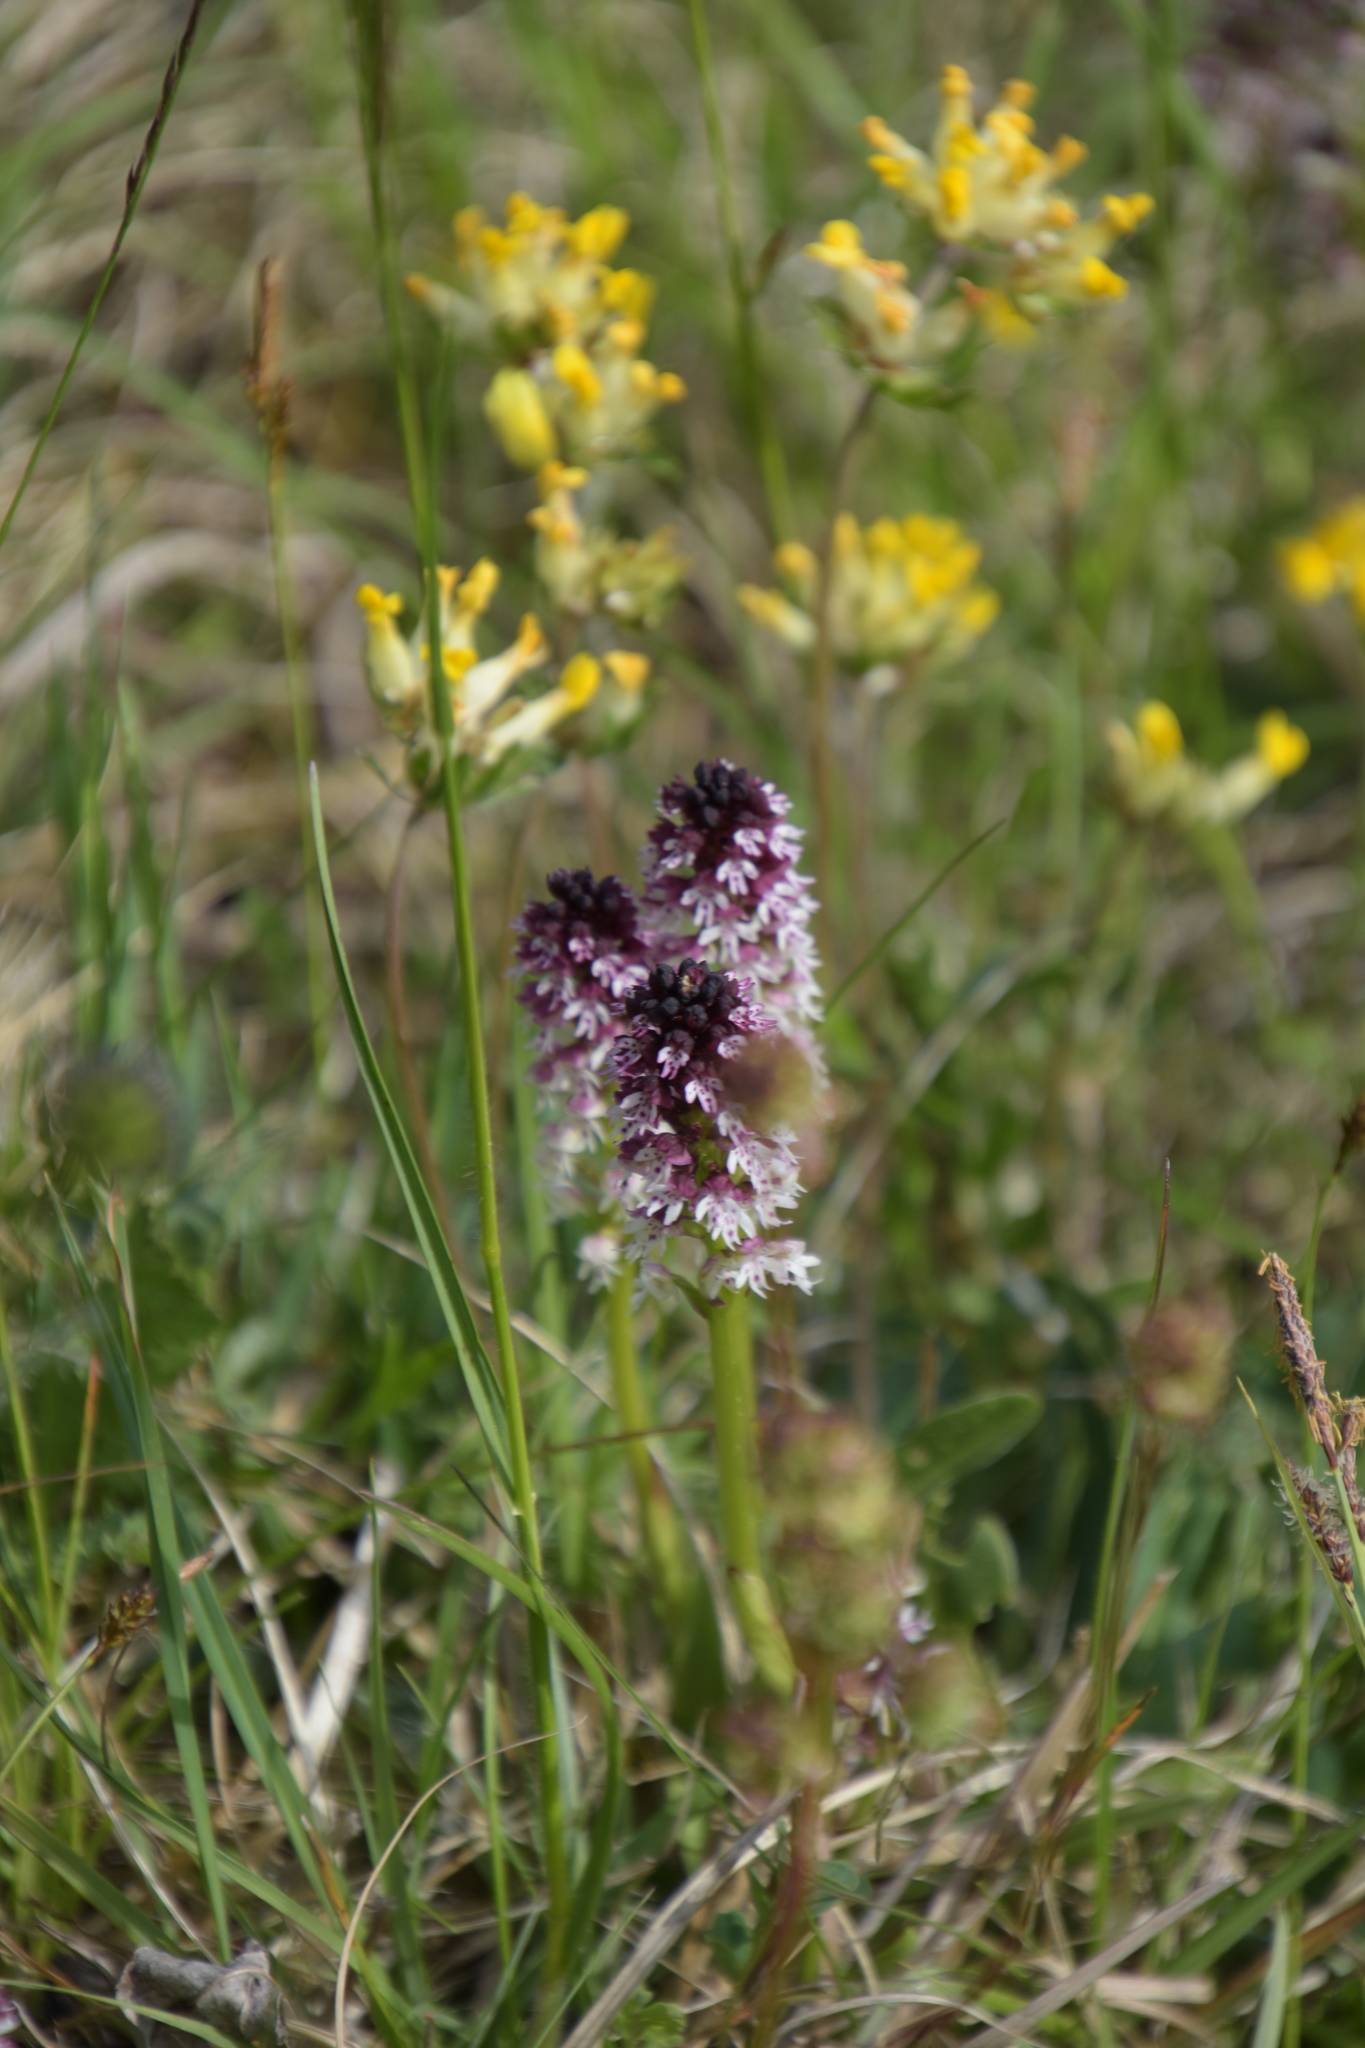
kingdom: Plantae
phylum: Tracheophyta
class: Liliopsida
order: Asparagales
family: Orchidaceae
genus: Neotinea
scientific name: Neotinea ustulata
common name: Burnt orchid
